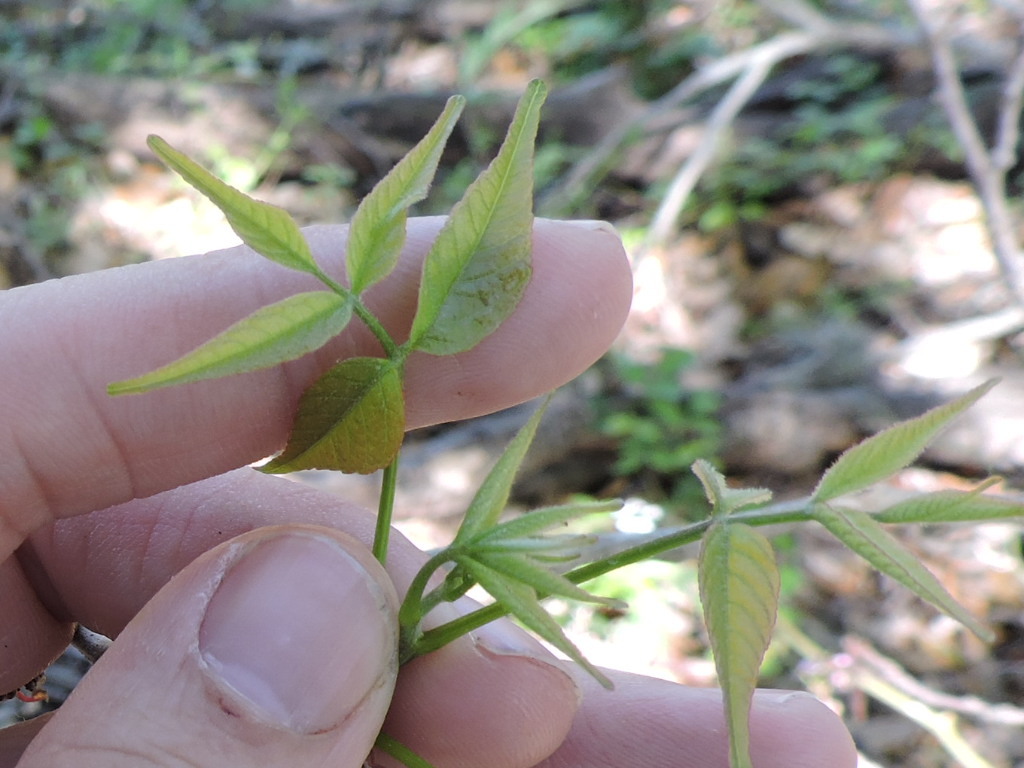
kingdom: Plantae
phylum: Tracheophyta
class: Magnoliopsida
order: Sapindales
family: Sapindaceae
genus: Ungnadia
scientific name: Ungnadia speciosa
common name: Texas-buckeye
